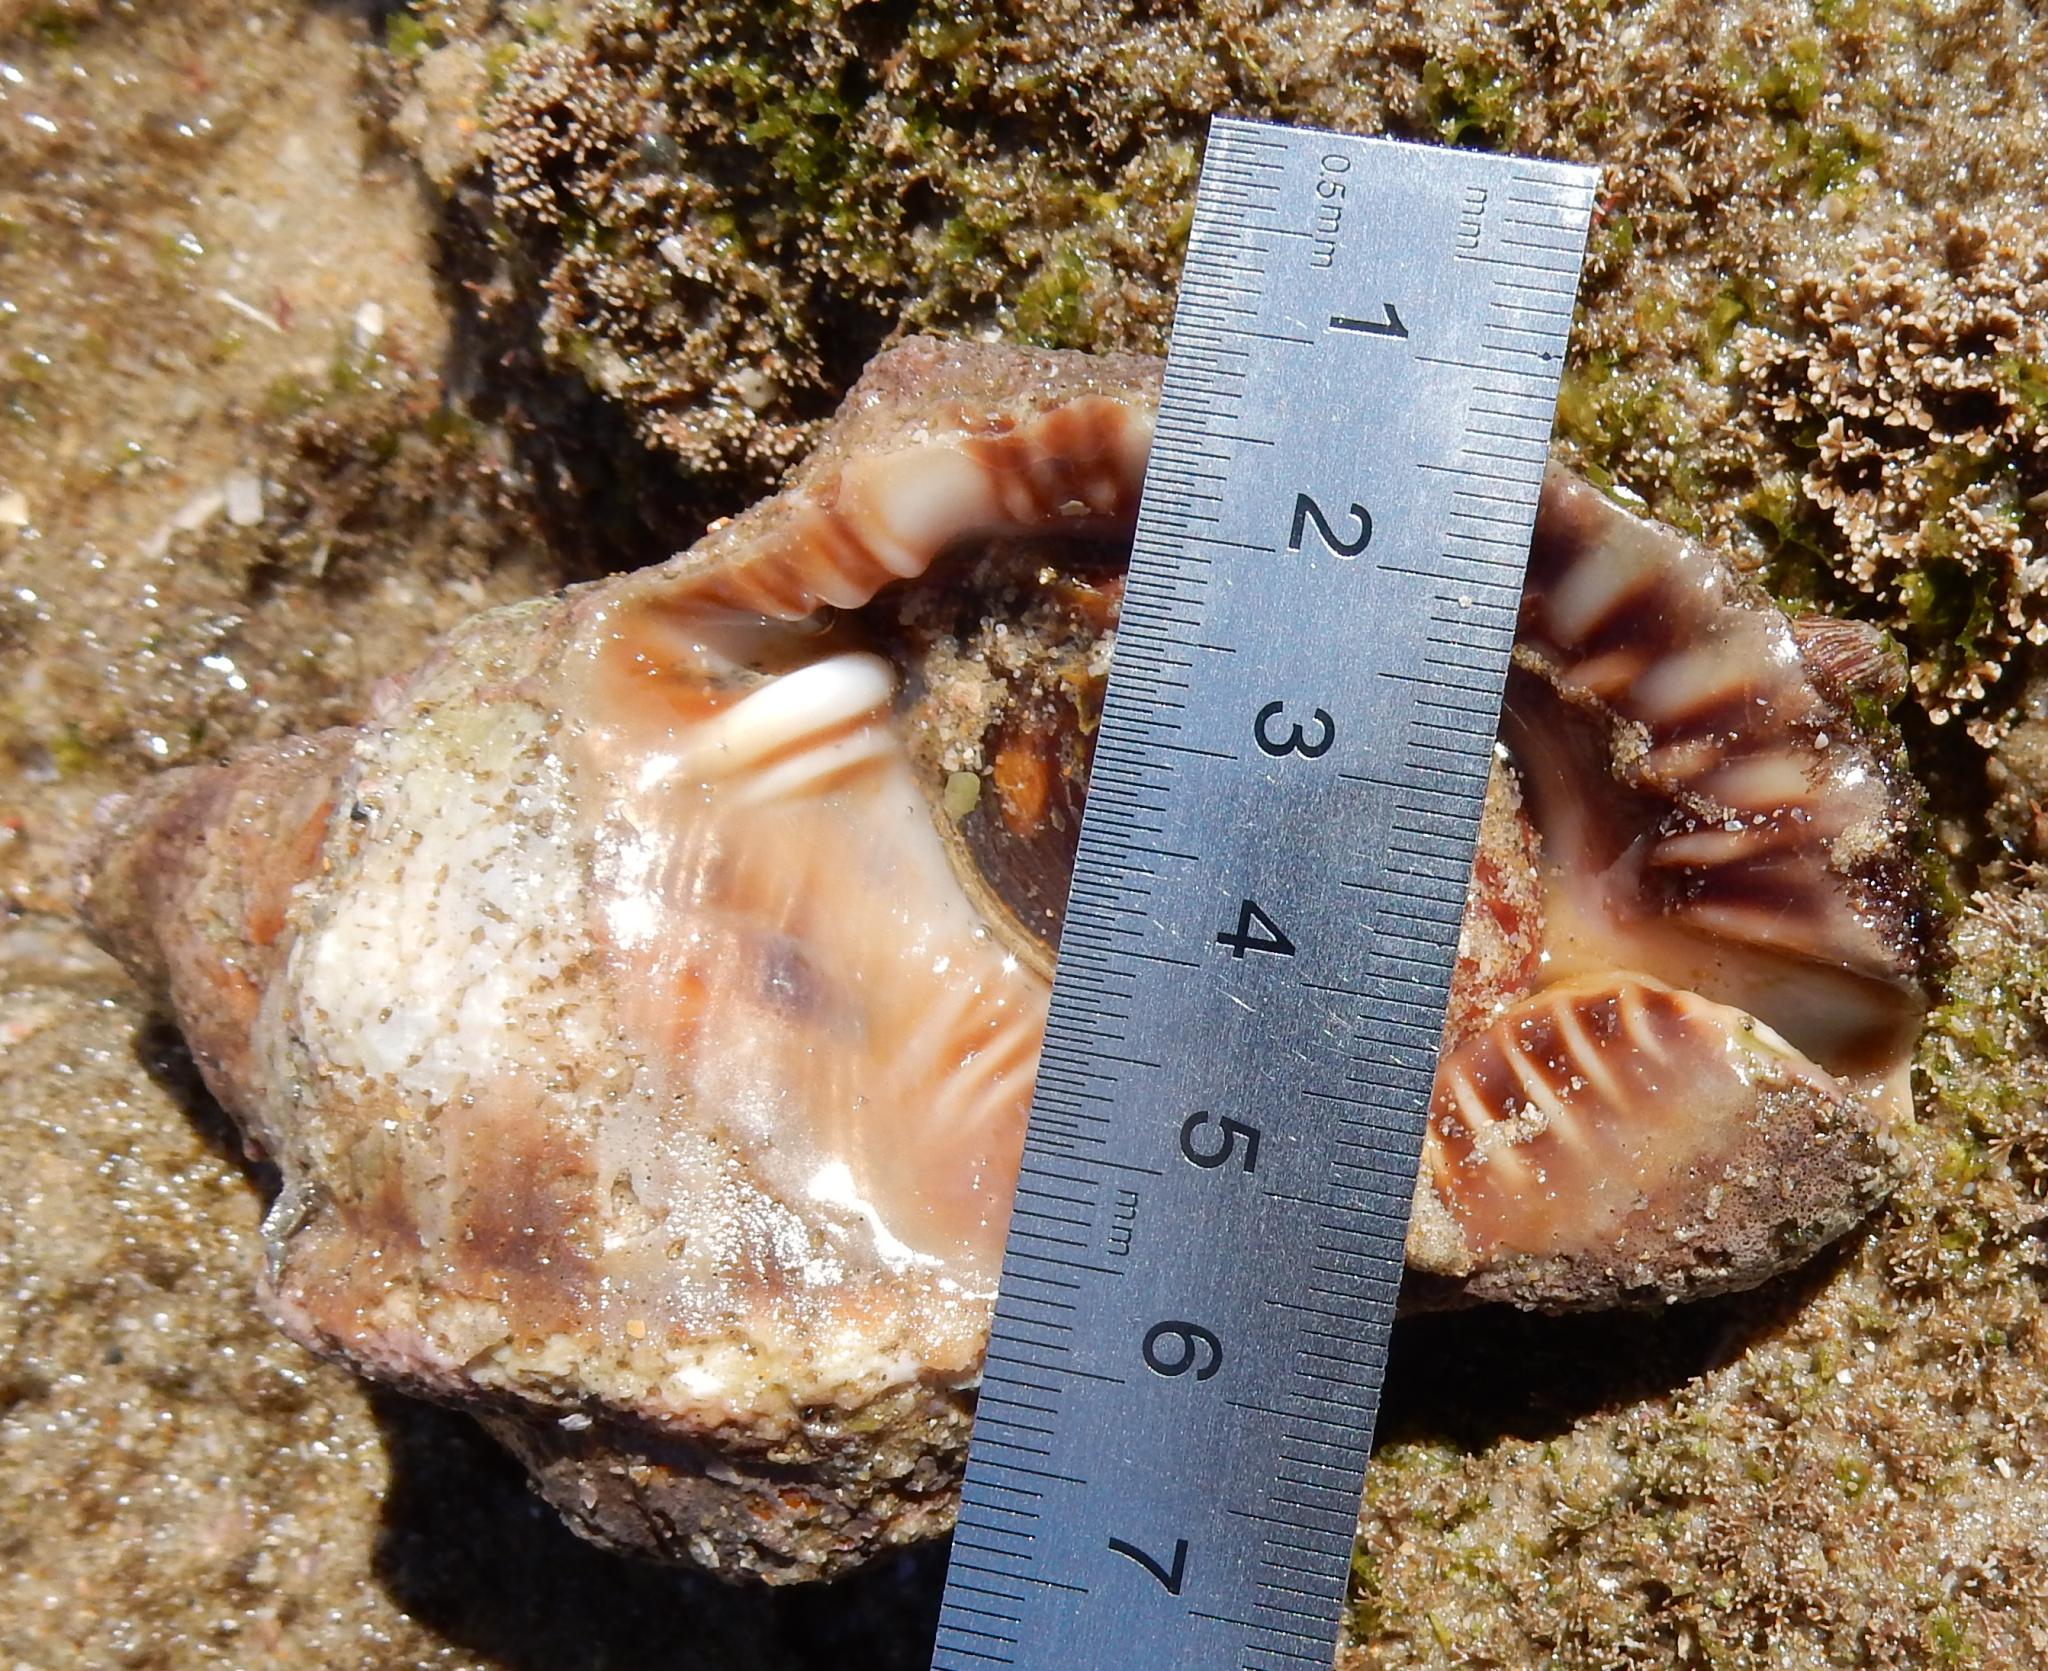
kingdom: Animalia
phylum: Mollusca
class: Gastropoda
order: Littorinimorpha
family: Charoniidae
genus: Charonia
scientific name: Charonia lampas
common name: Knobbed triton
